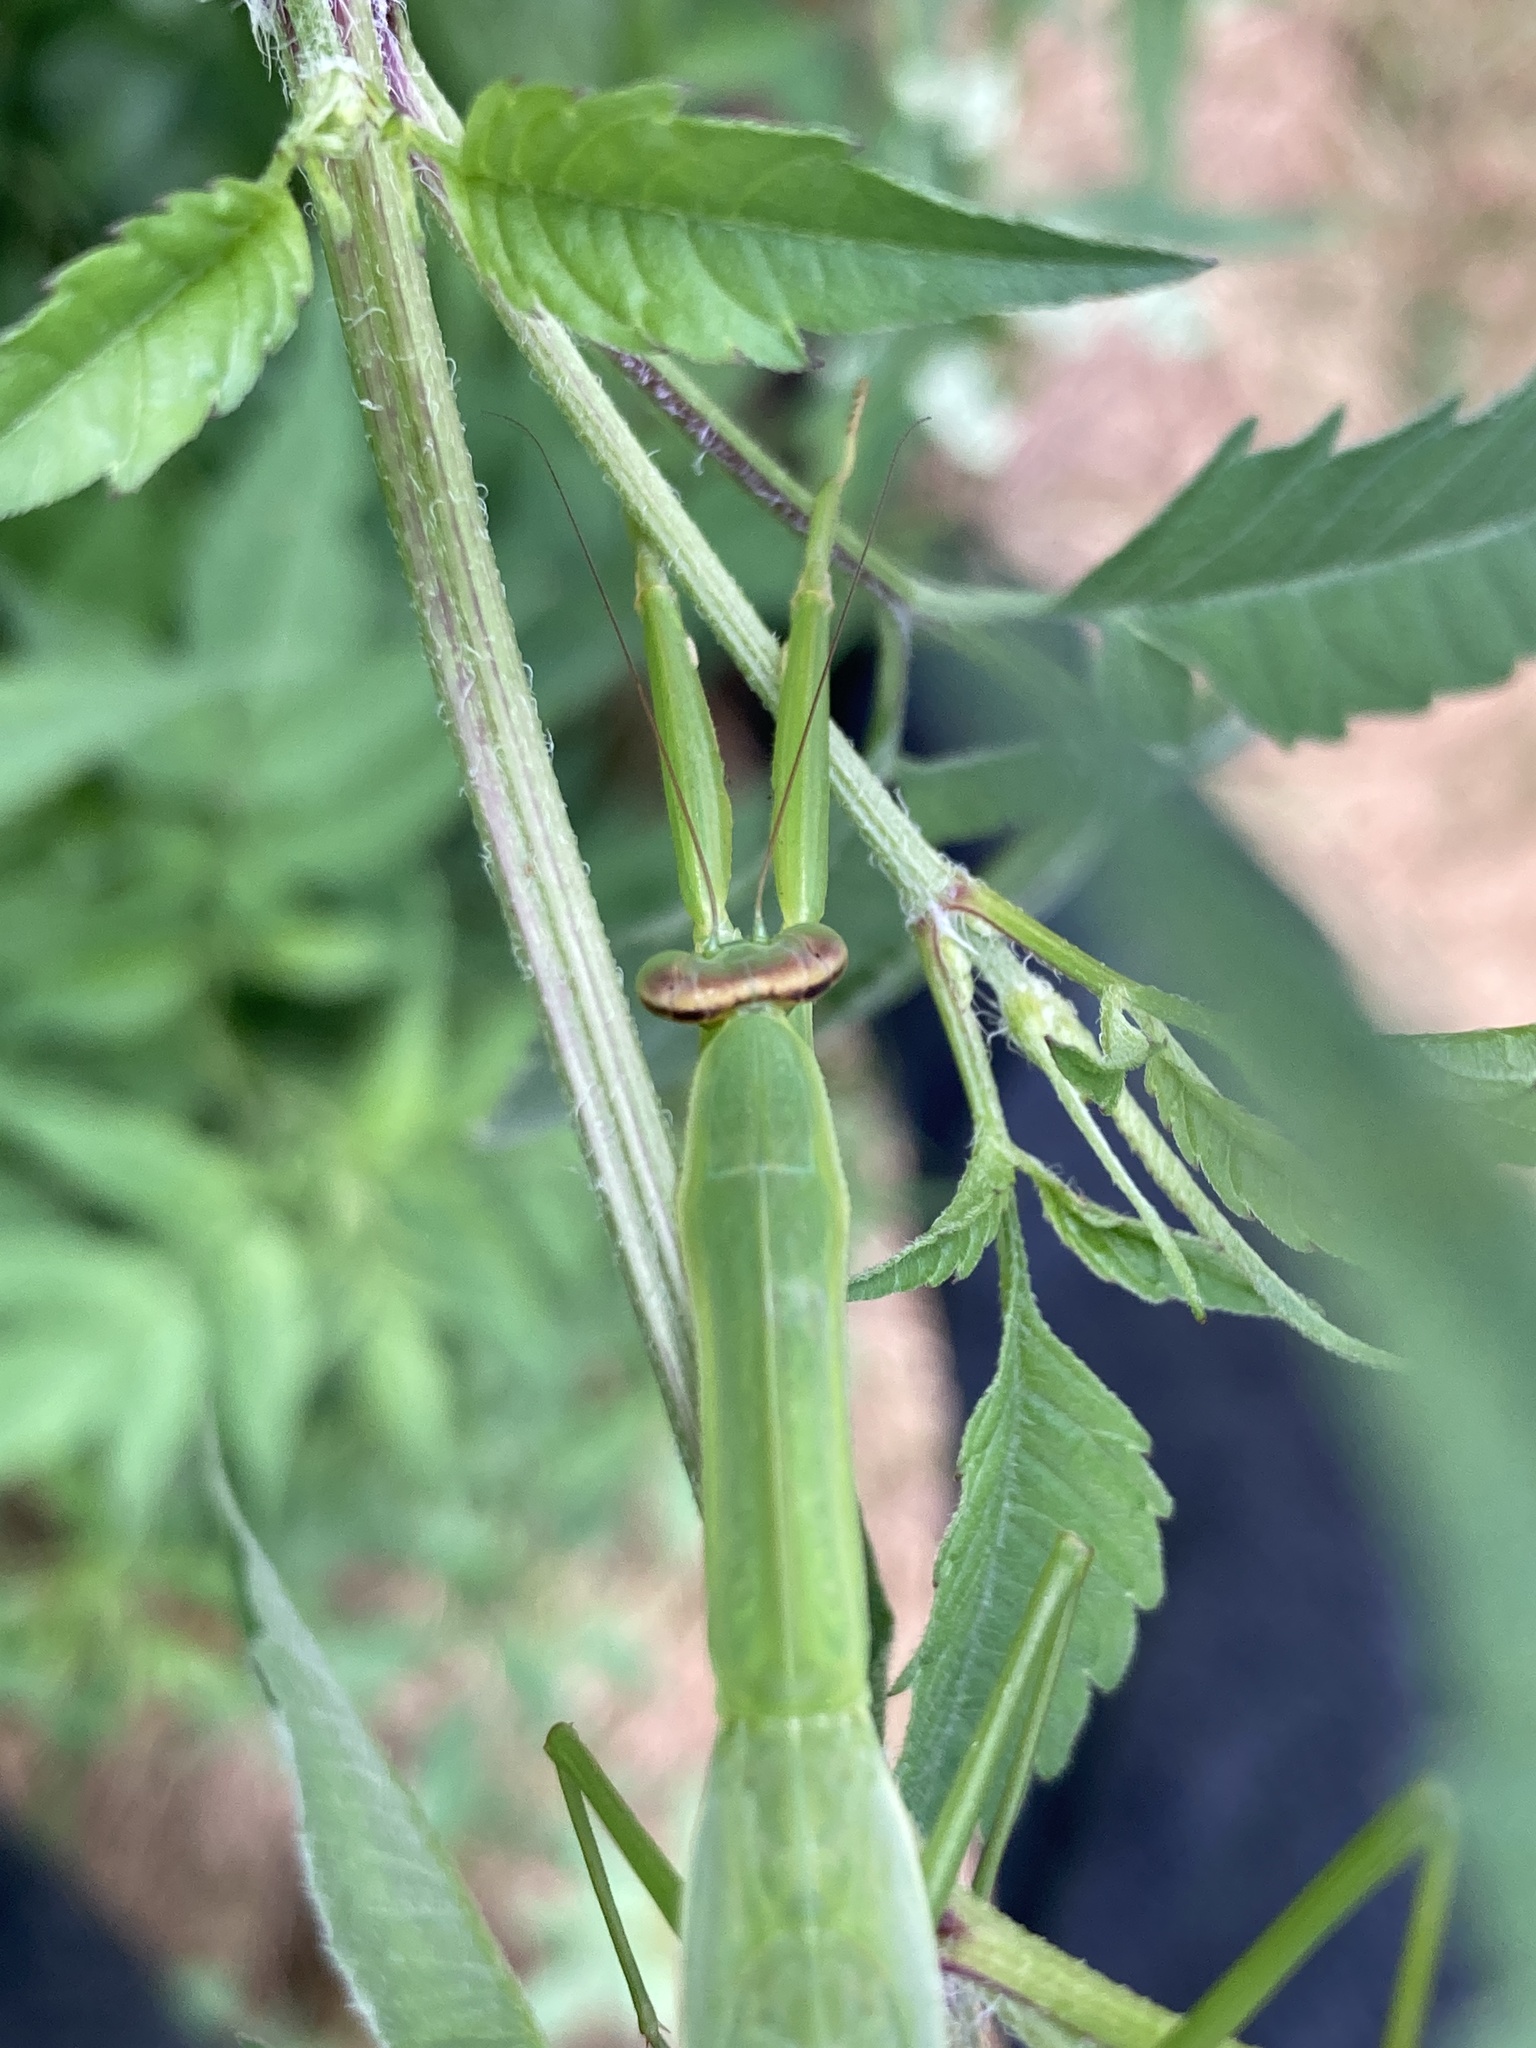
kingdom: Animalia
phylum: Arthropoda
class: Insecta
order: Mantodea
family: Mantidae
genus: Tenodera
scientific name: Tenodera sinensis
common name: Chinese mantis
